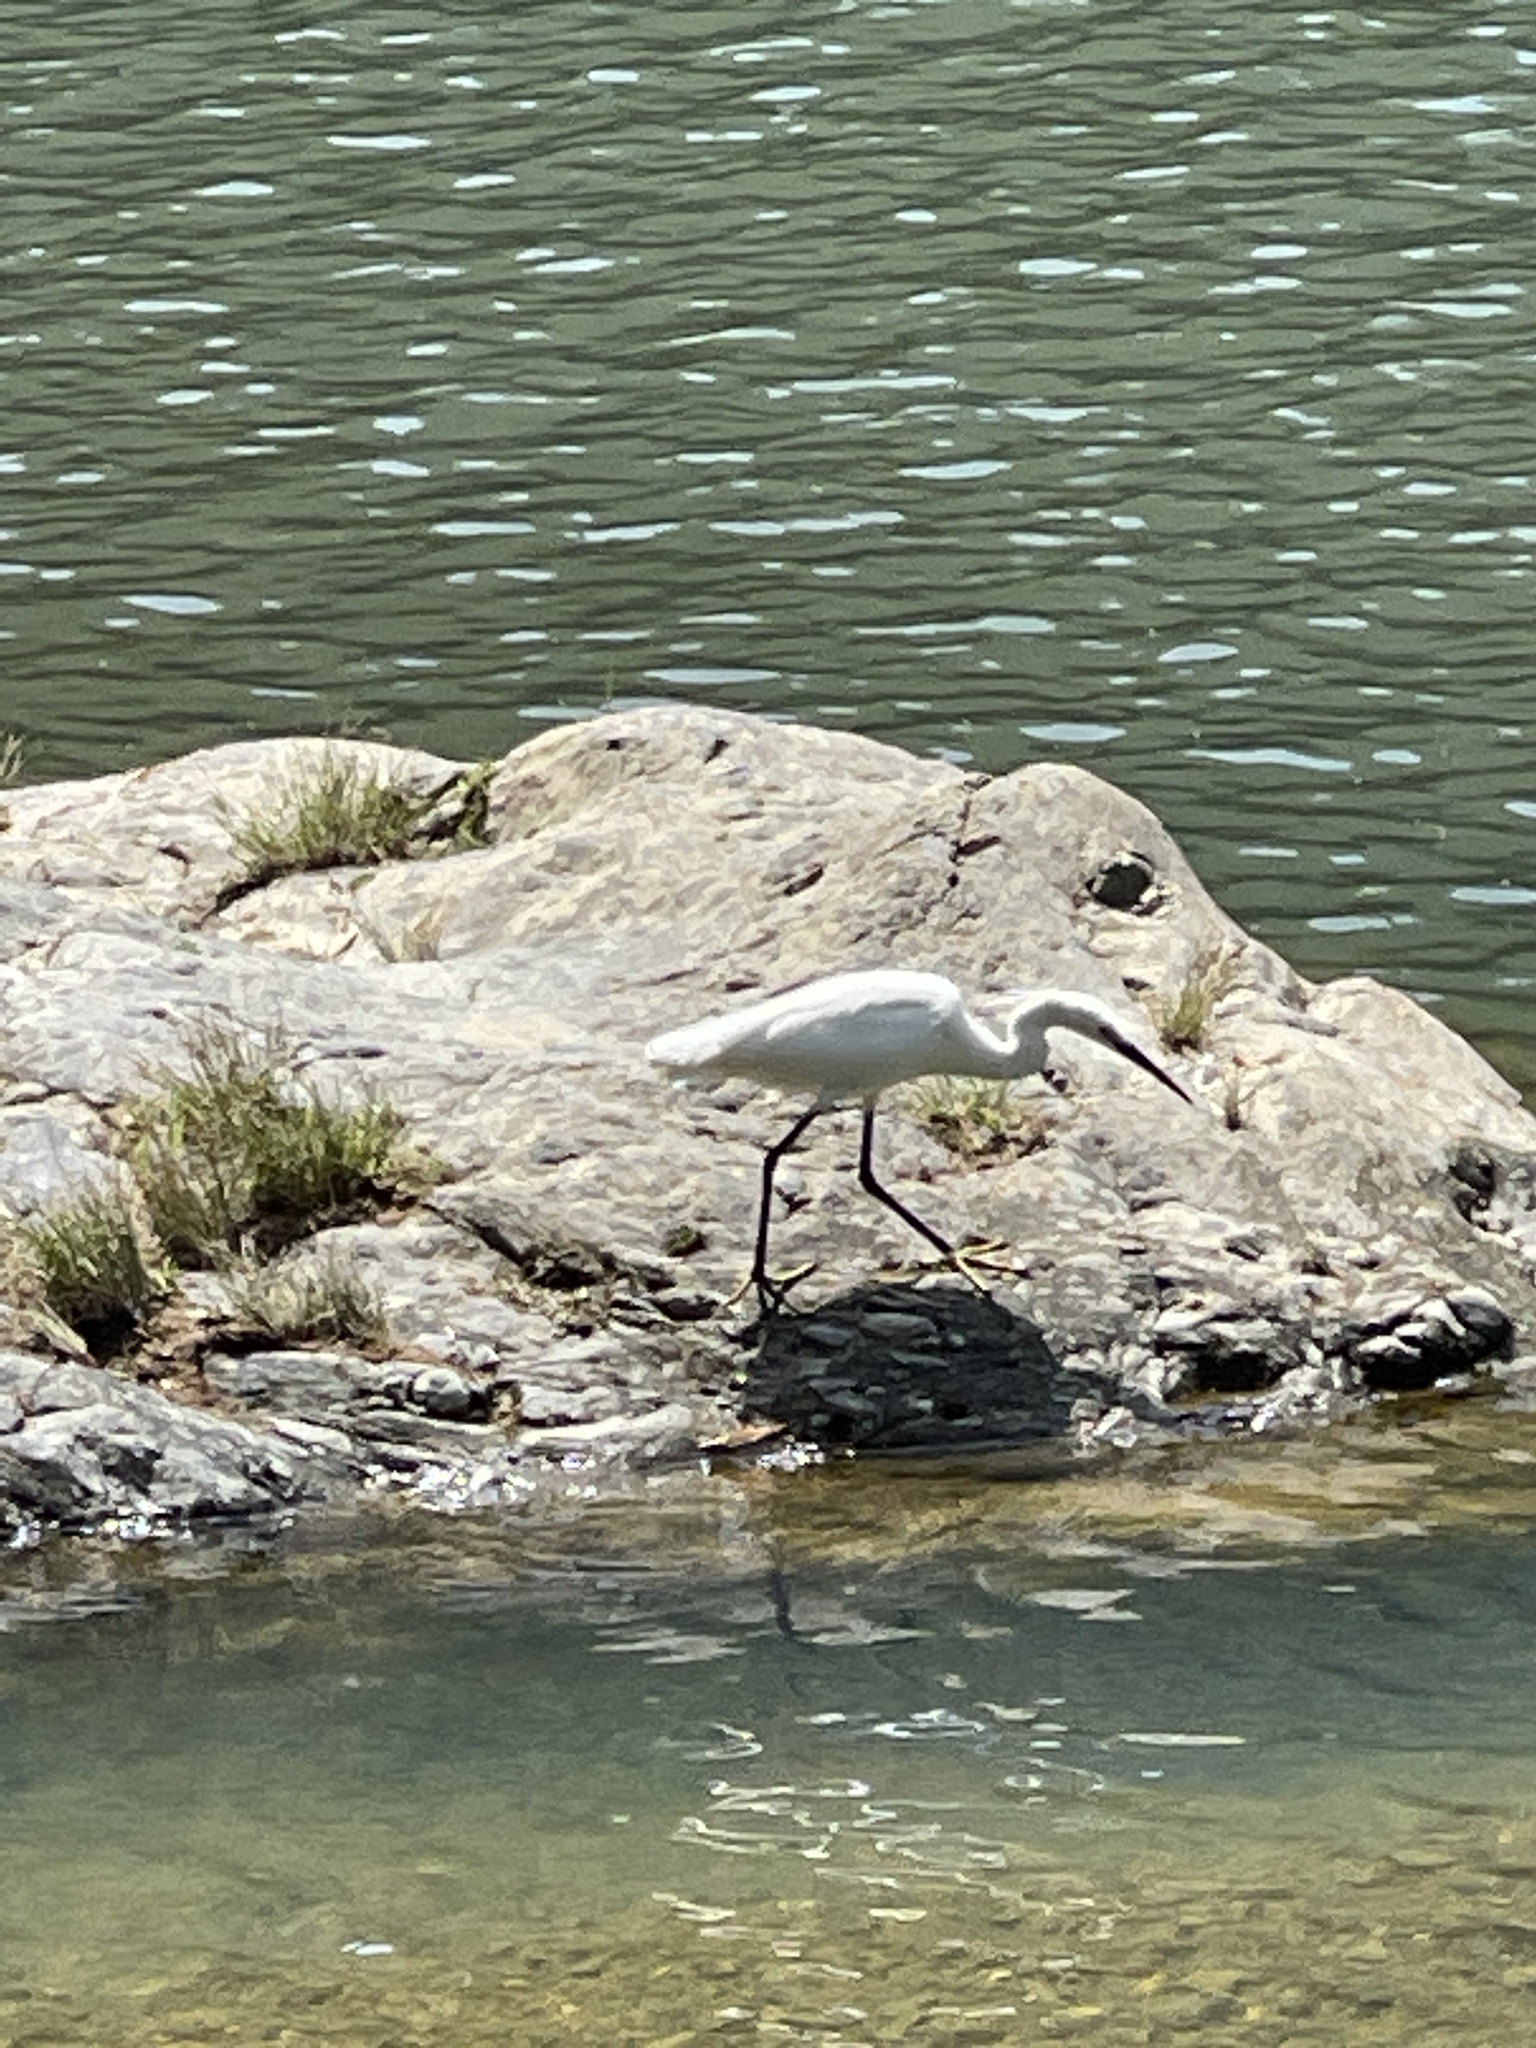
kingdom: Animalia
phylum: Chordata
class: Aves
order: Pelecaniformes
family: Ardeidae
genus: Egretta
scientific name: Egretta garzetta
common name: Little egret
